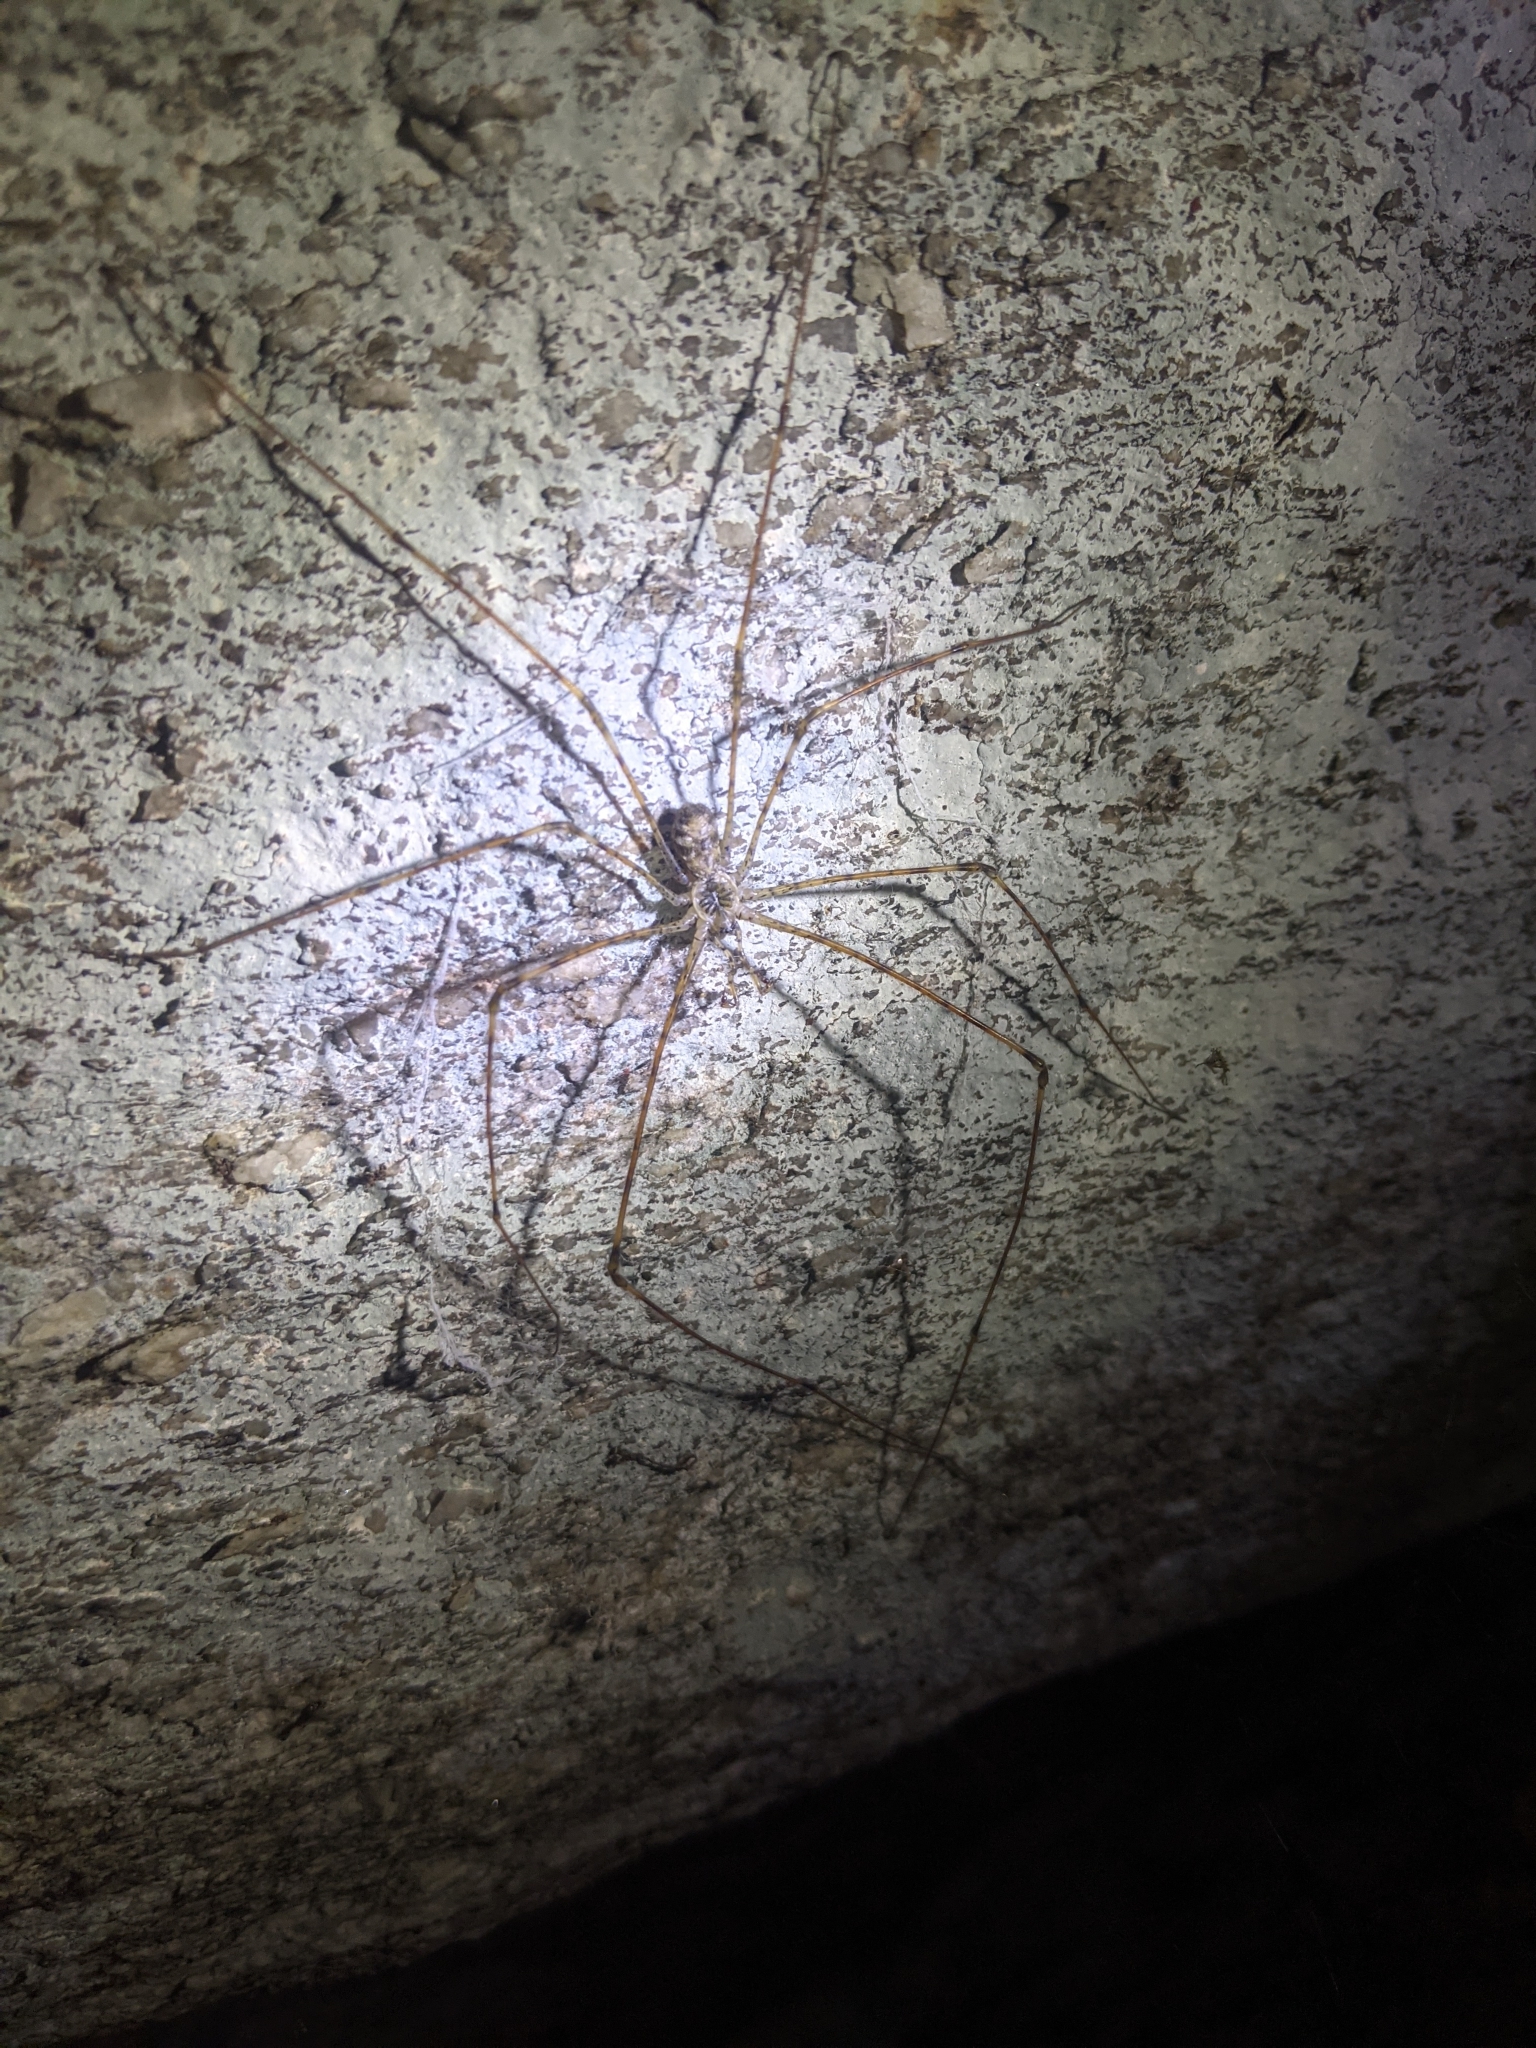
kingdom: Animalia
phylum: Arthropoda
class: Arachnida
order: Araneae
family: Hypochilidae
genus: Hypochilus
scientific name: Hypochilus pococki
